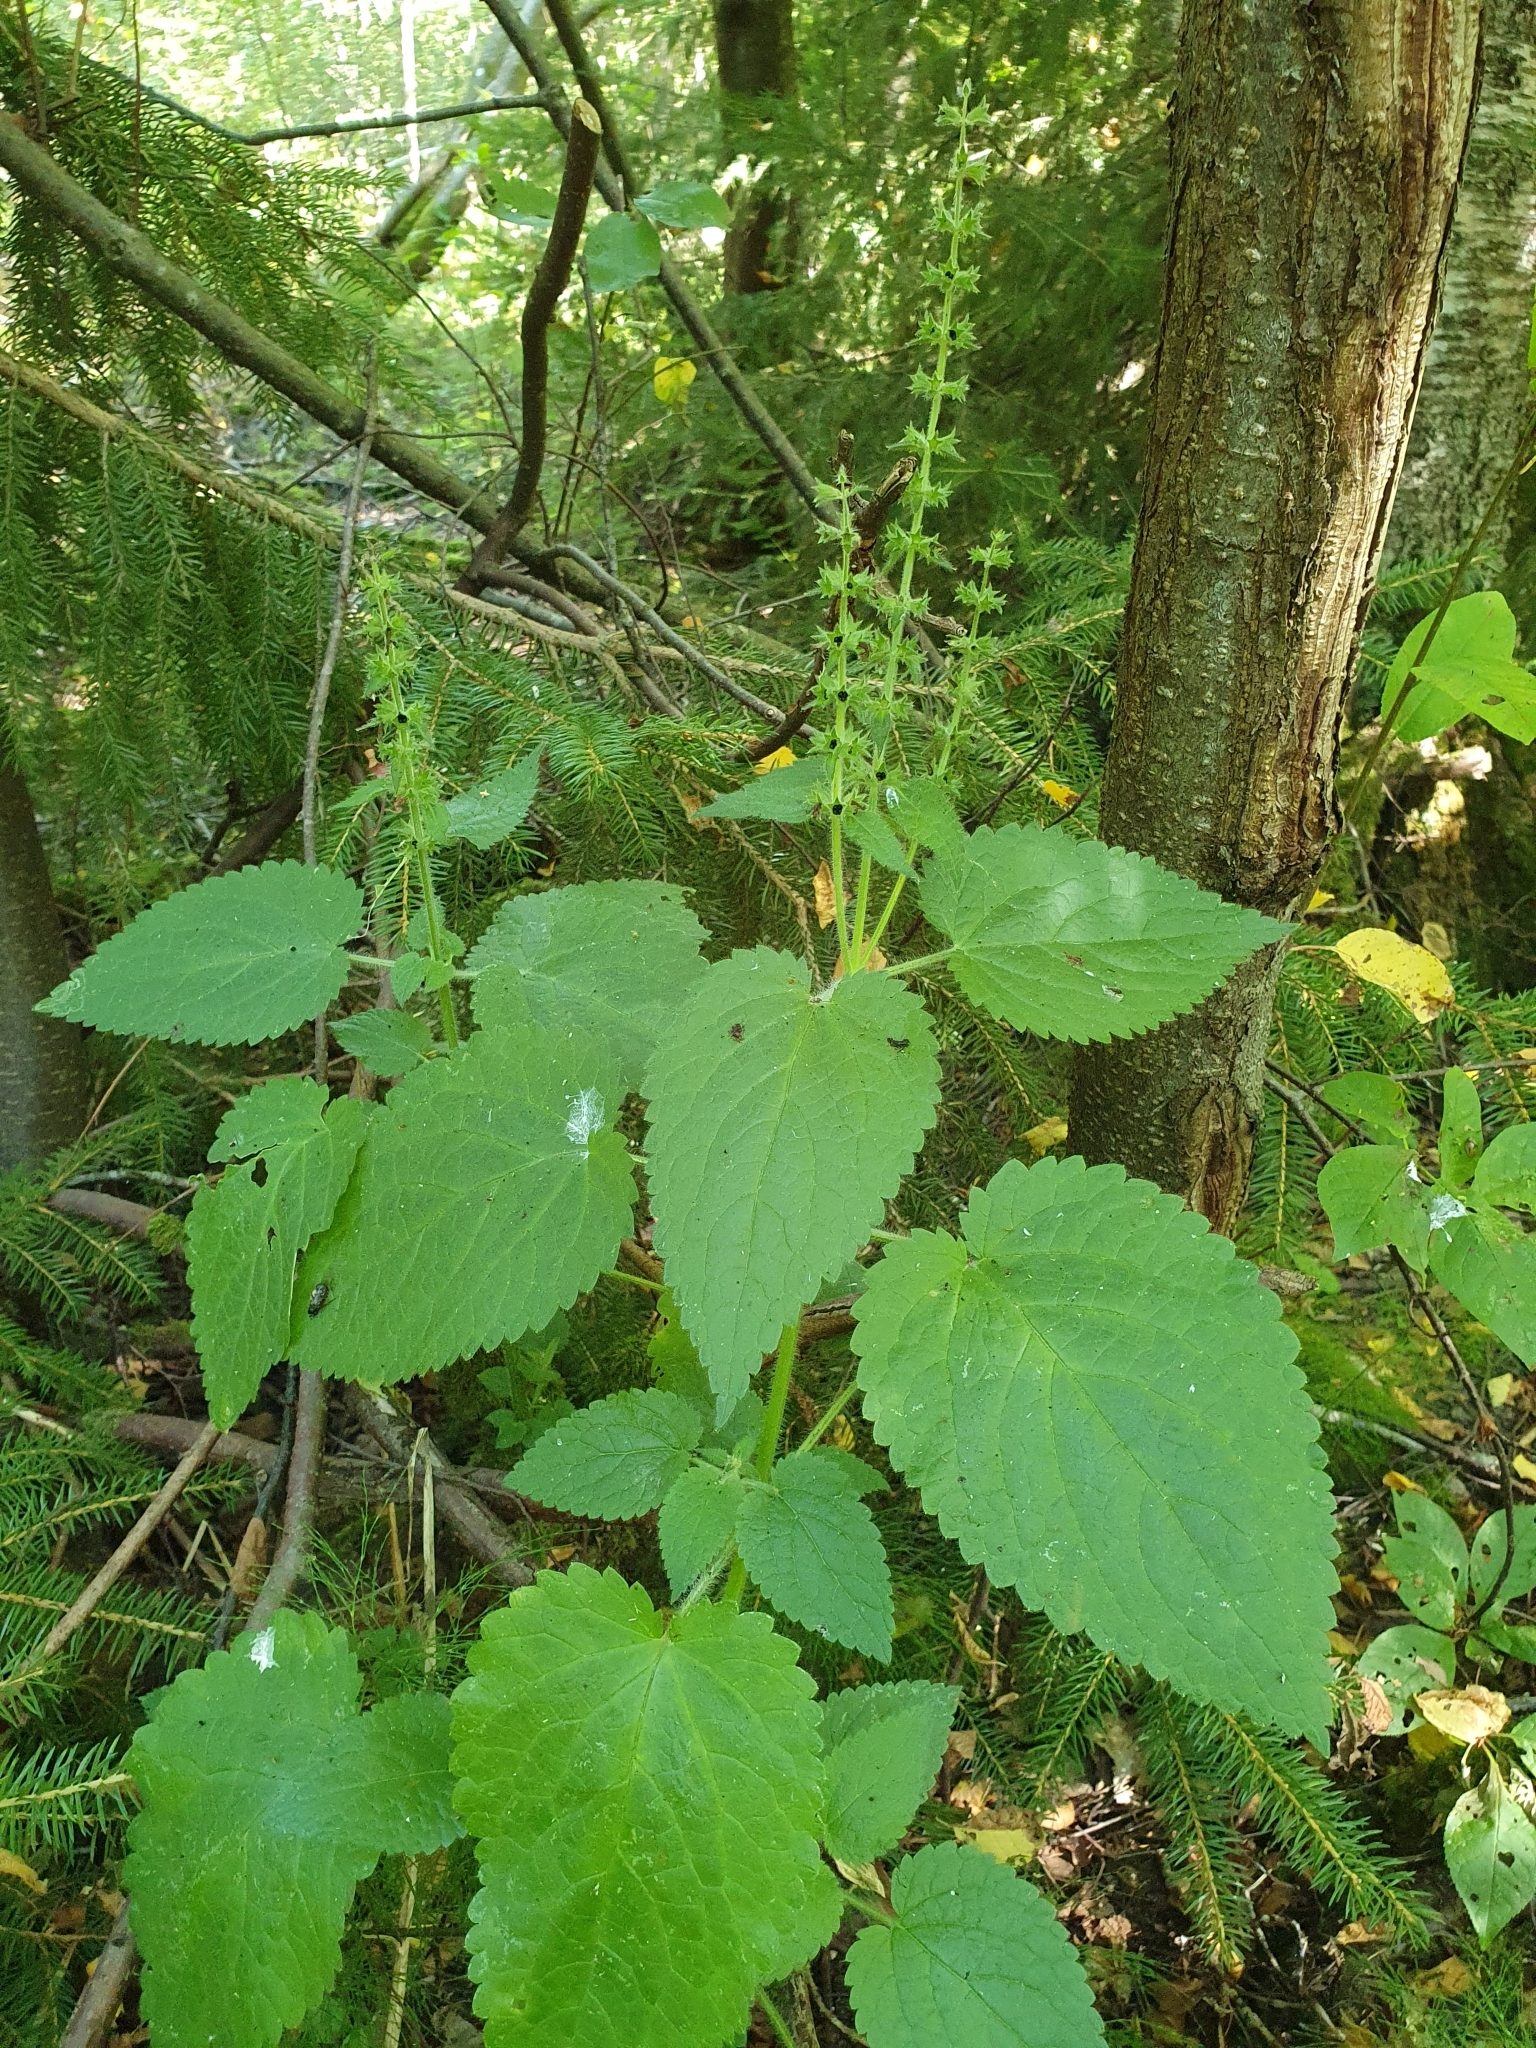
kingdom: Plantae
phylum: Tracheophyta
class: Magnoliopsida
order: Lamiales
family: Lamiaceae
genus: Stachys
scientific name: Stachys sylvatica
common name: Hedge woundwort
